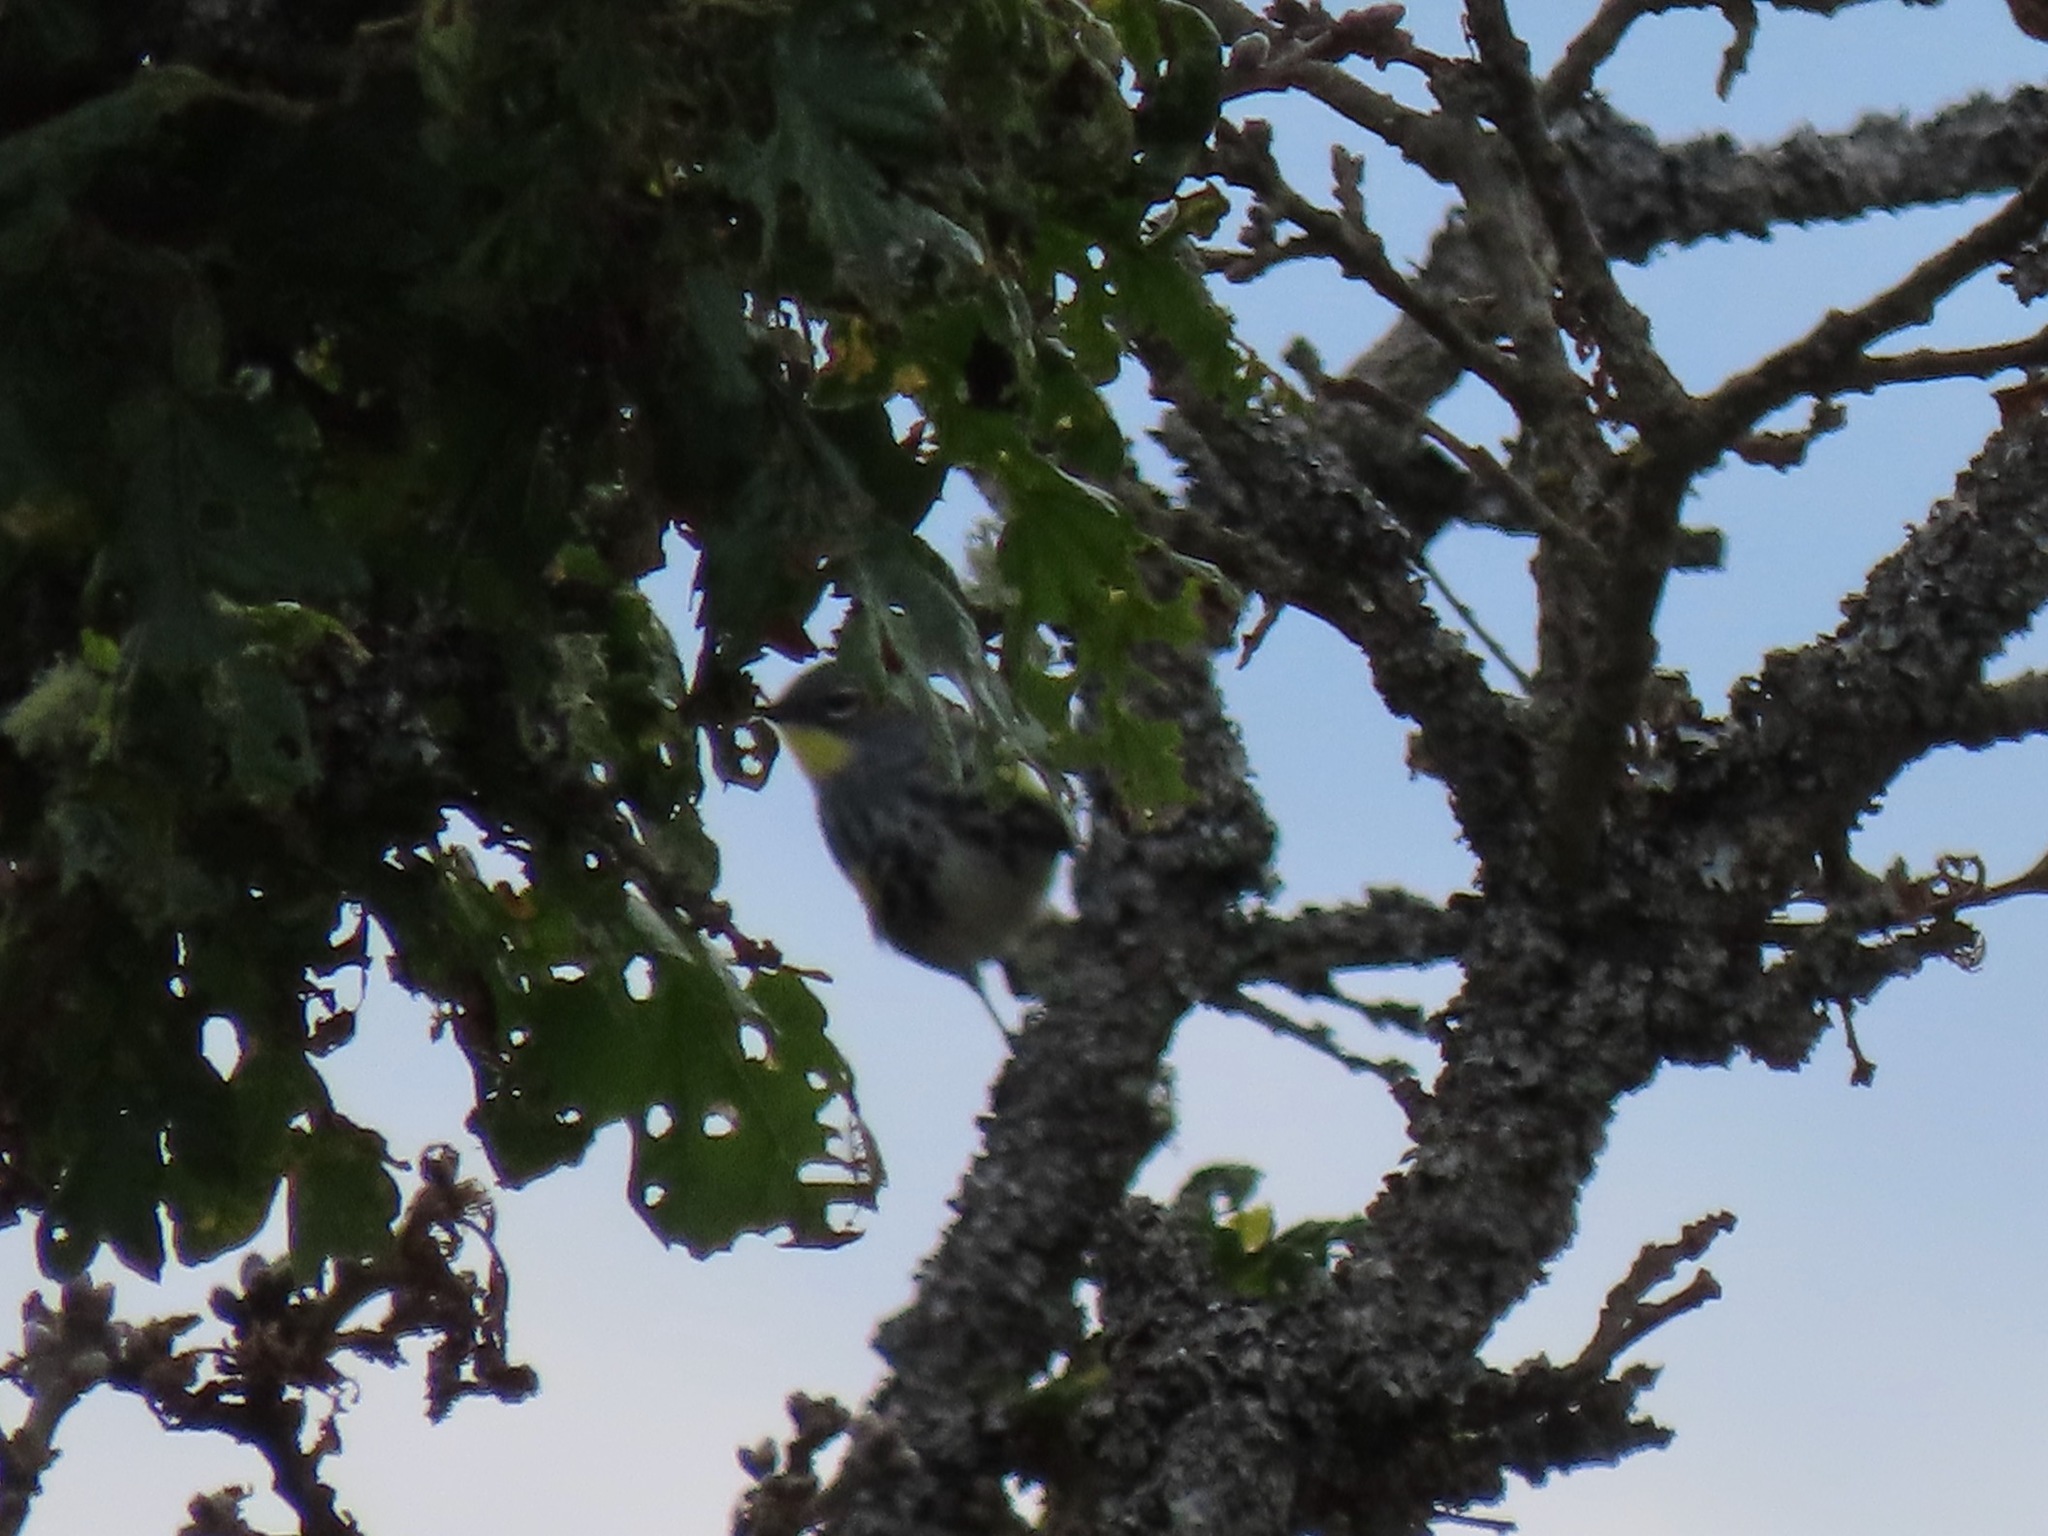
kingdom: Animalia
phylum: Chordata
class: Aves
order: Passeriformes
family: Parulidae
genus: Setophaga
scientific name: Setophaga coronata
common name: Myrtle warbler
